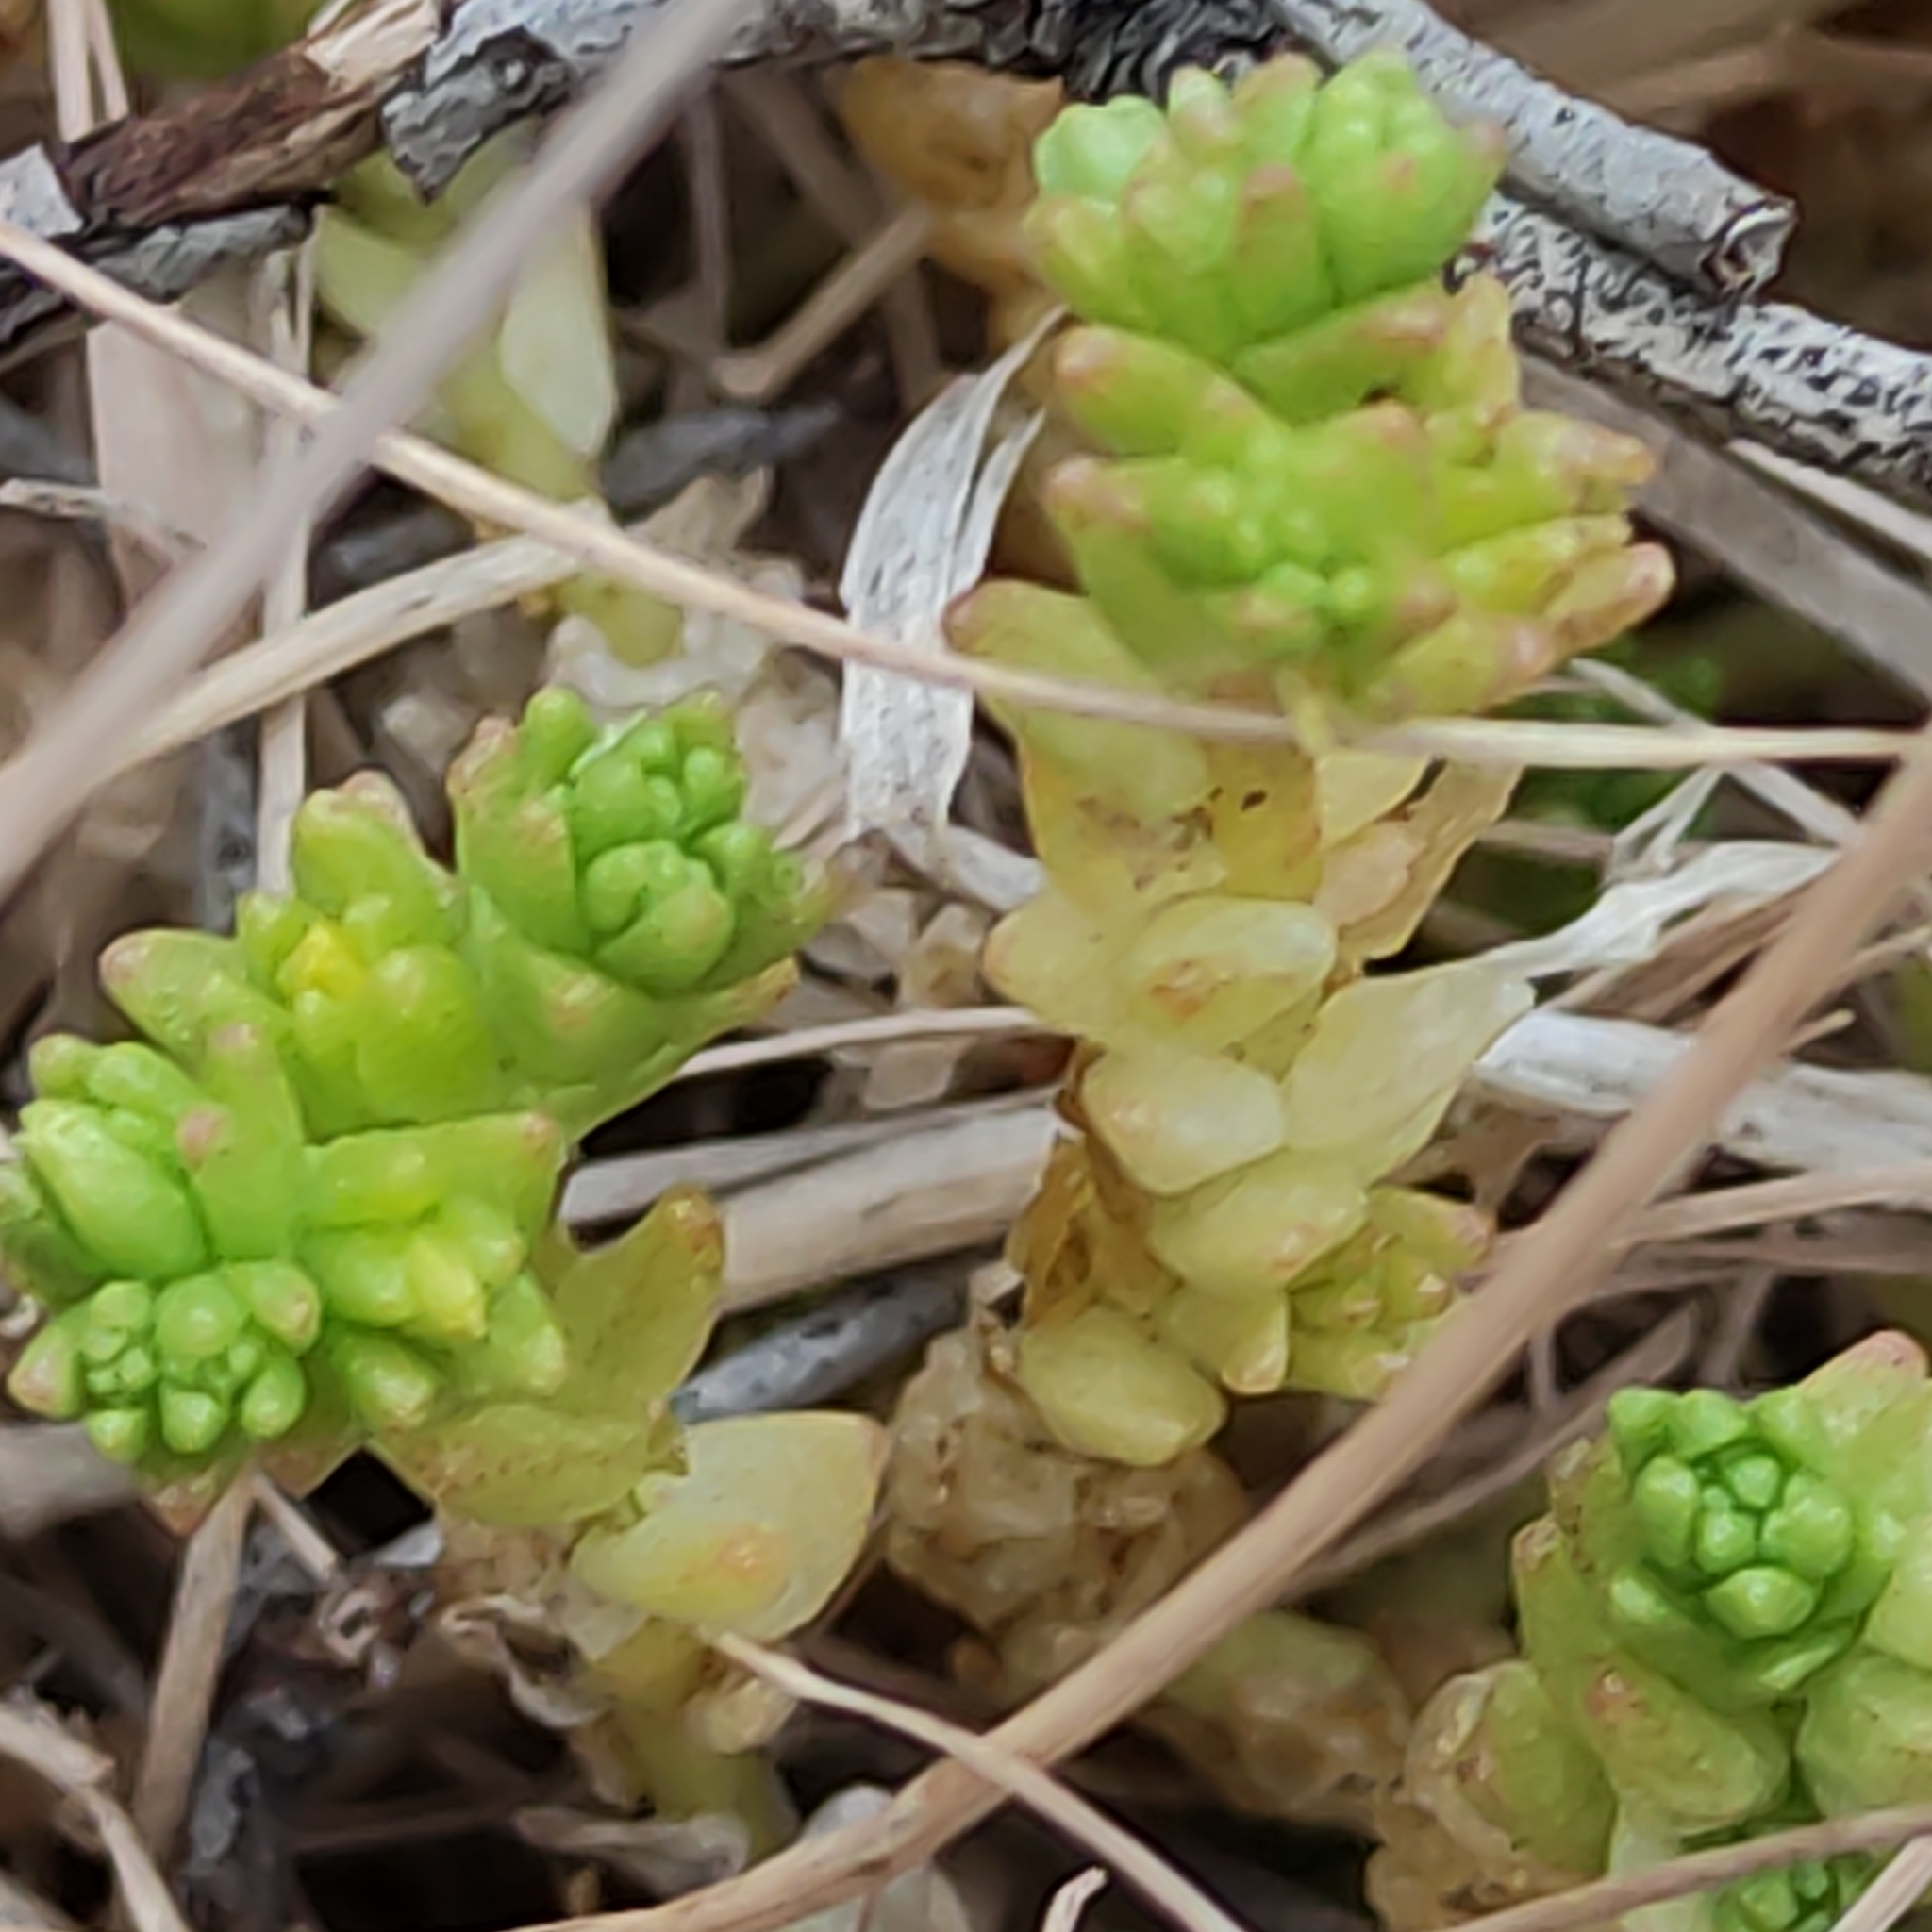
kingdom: Plantae
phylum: Tracheophyta
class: Magnoliopsida
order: Saxifragales
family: Crassulaceae
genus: Sedum
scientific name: Sedum acre
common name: Biting stonecrop
